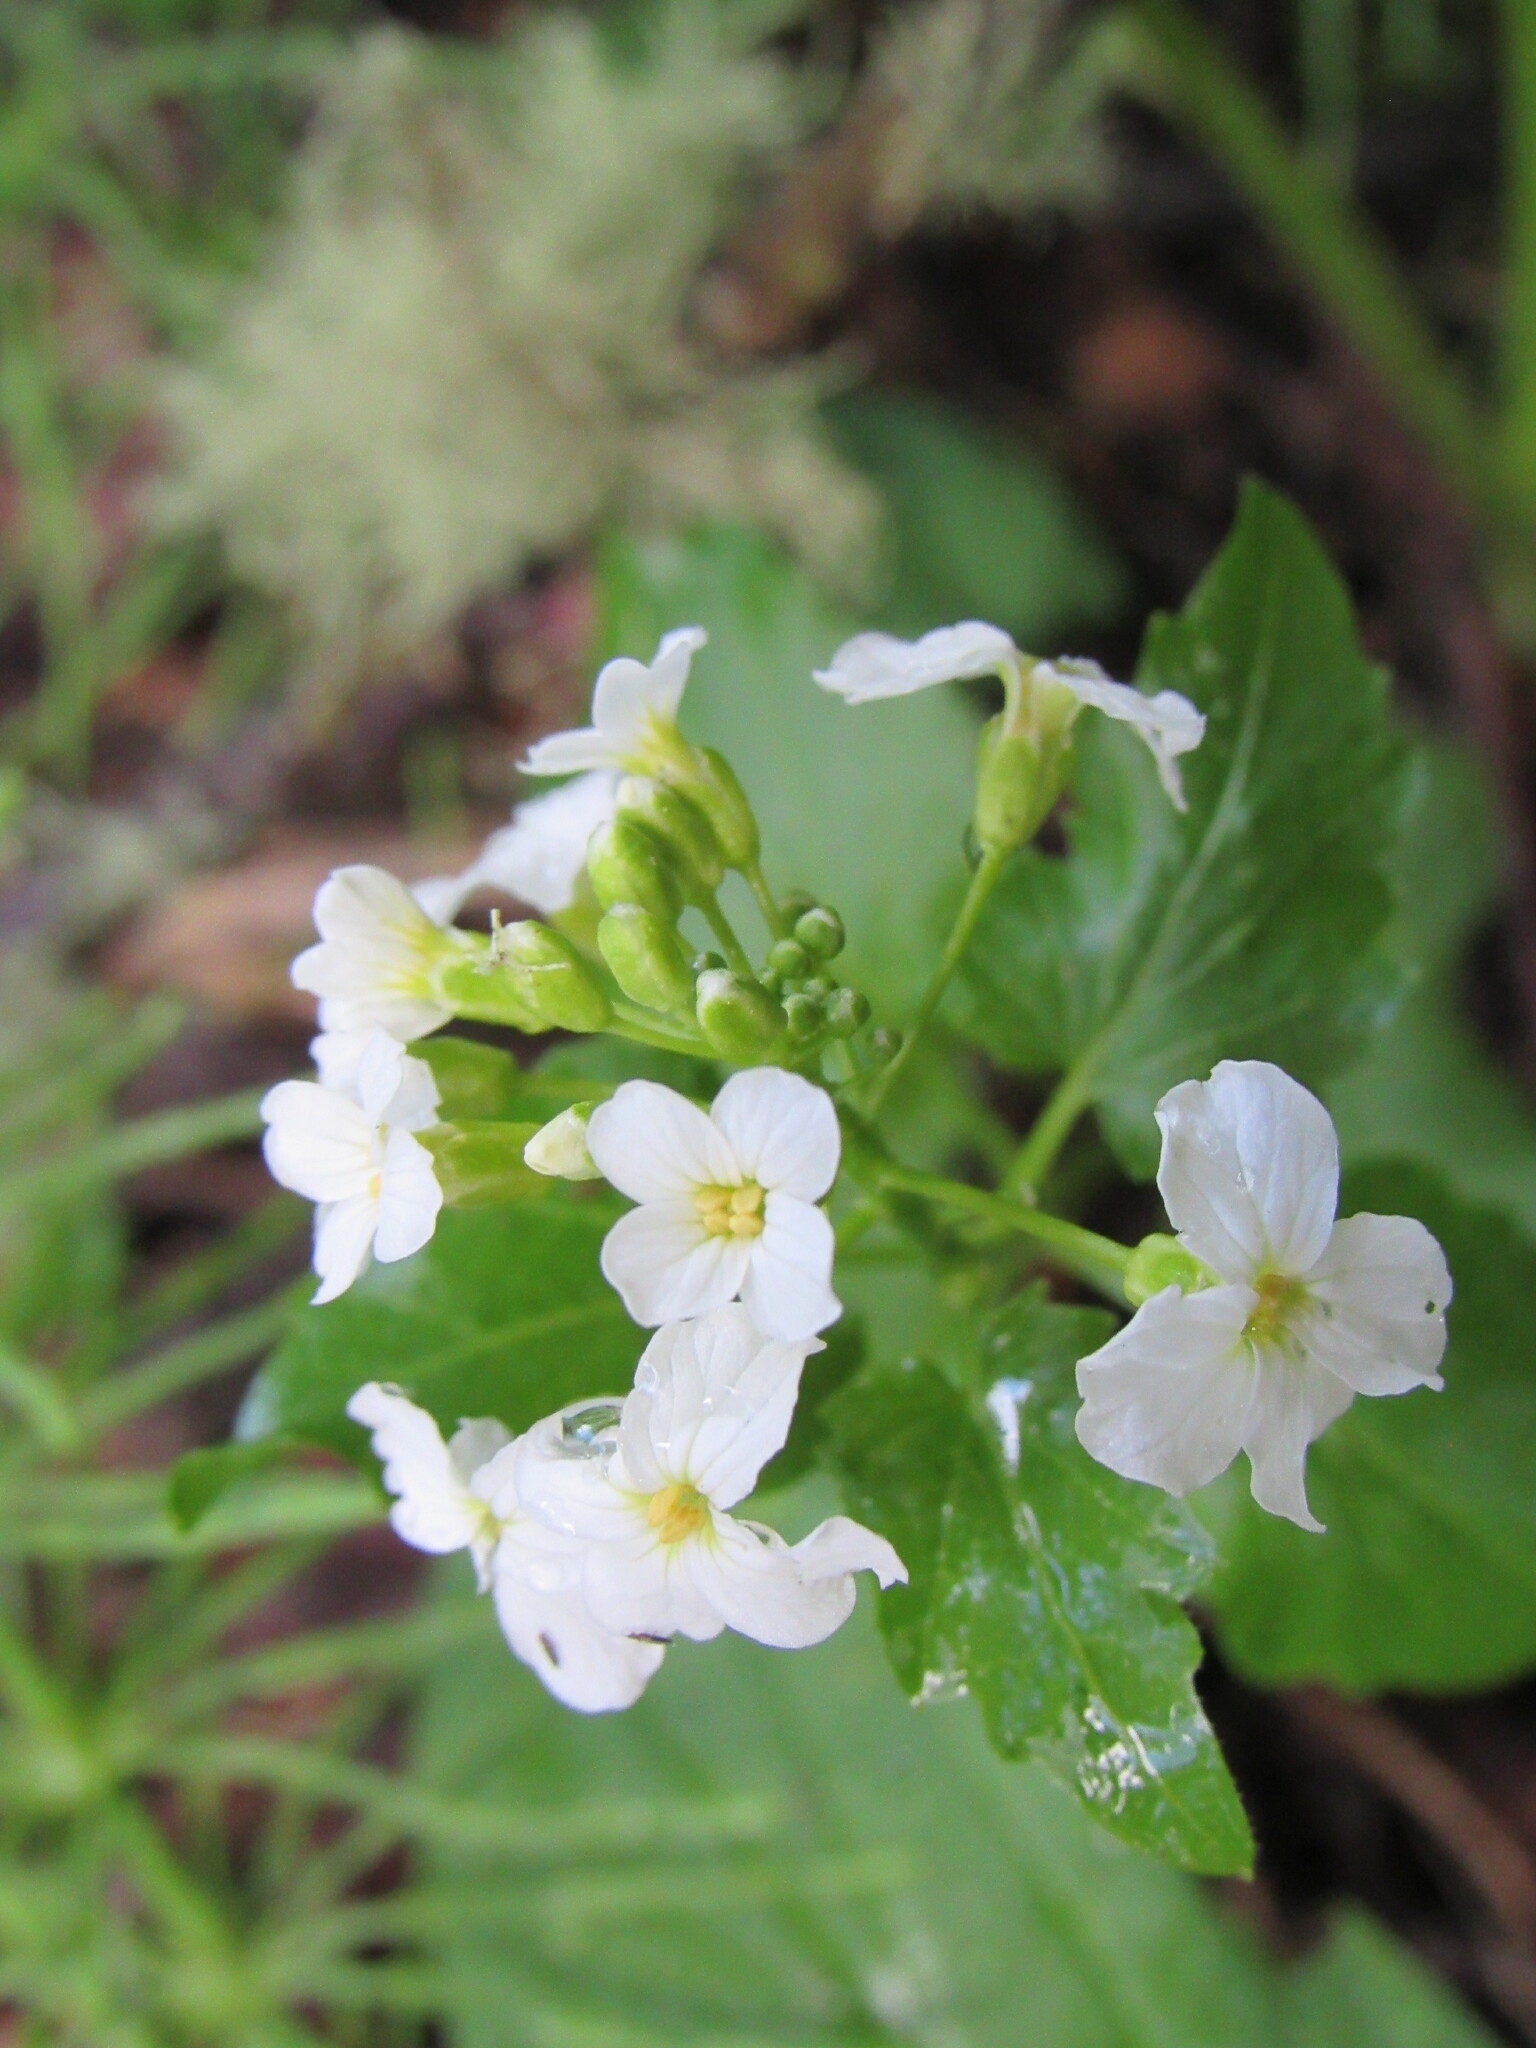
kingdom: Plantae
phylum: Tracheophyta
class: Magnoliopsida
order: Brassicales
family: Brassicaceae
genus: Cardamine
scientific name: Cardamine cordifolia
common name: Heart-leaf bittercress
